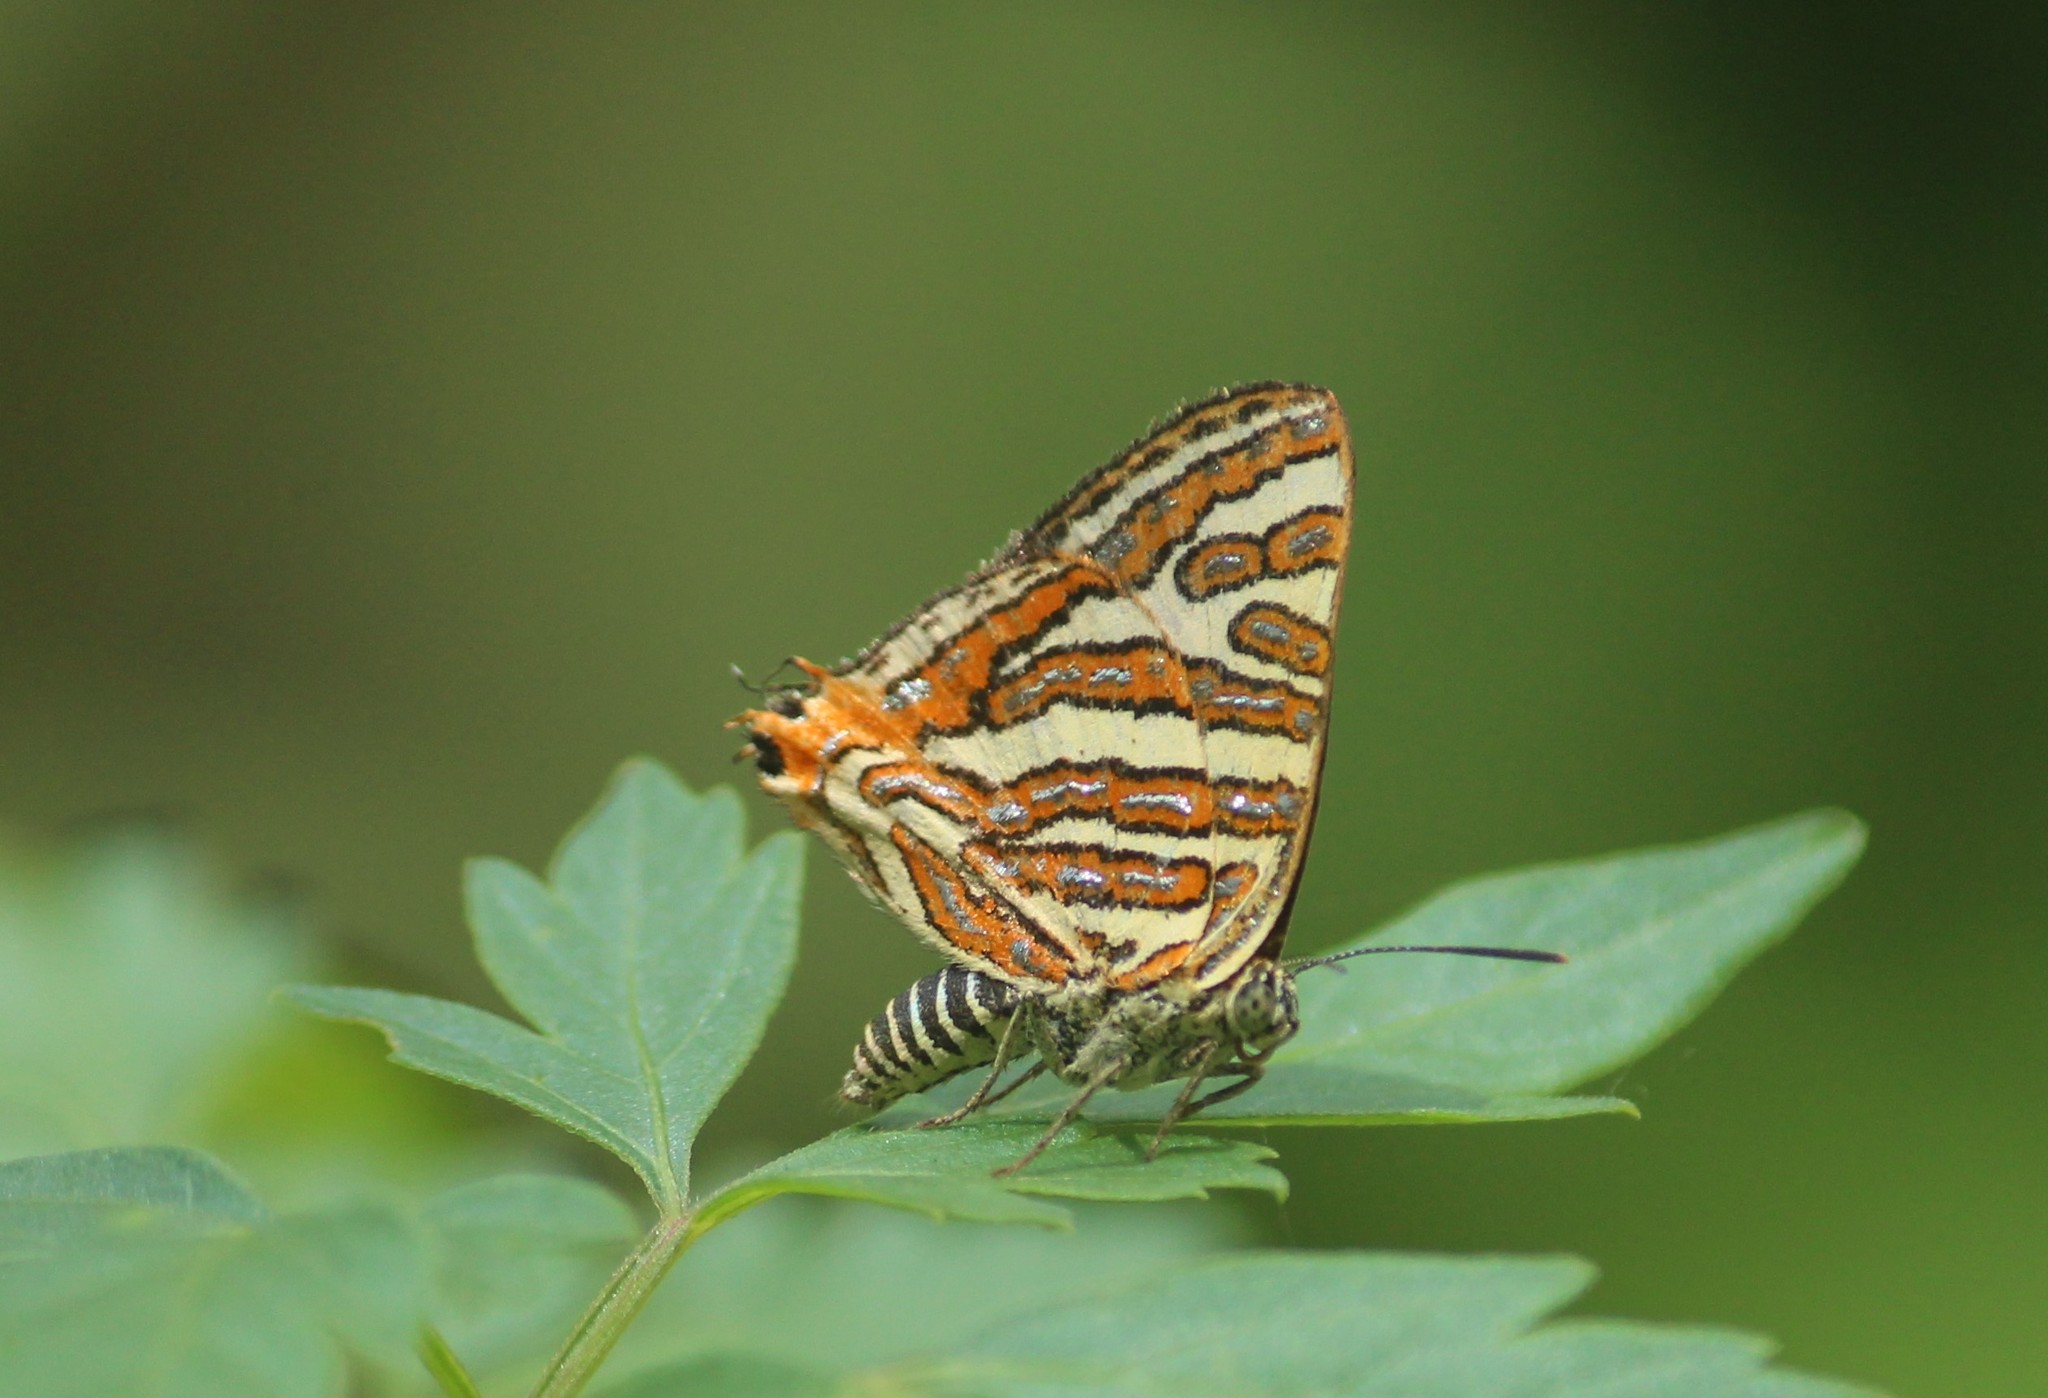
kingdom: Animalia
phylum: Arthropoda
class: Insecta
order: Lepidoptera
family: Lycaenidae
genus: Cigaritis
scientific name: Cigaritis vulcanus
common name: Common silverline
